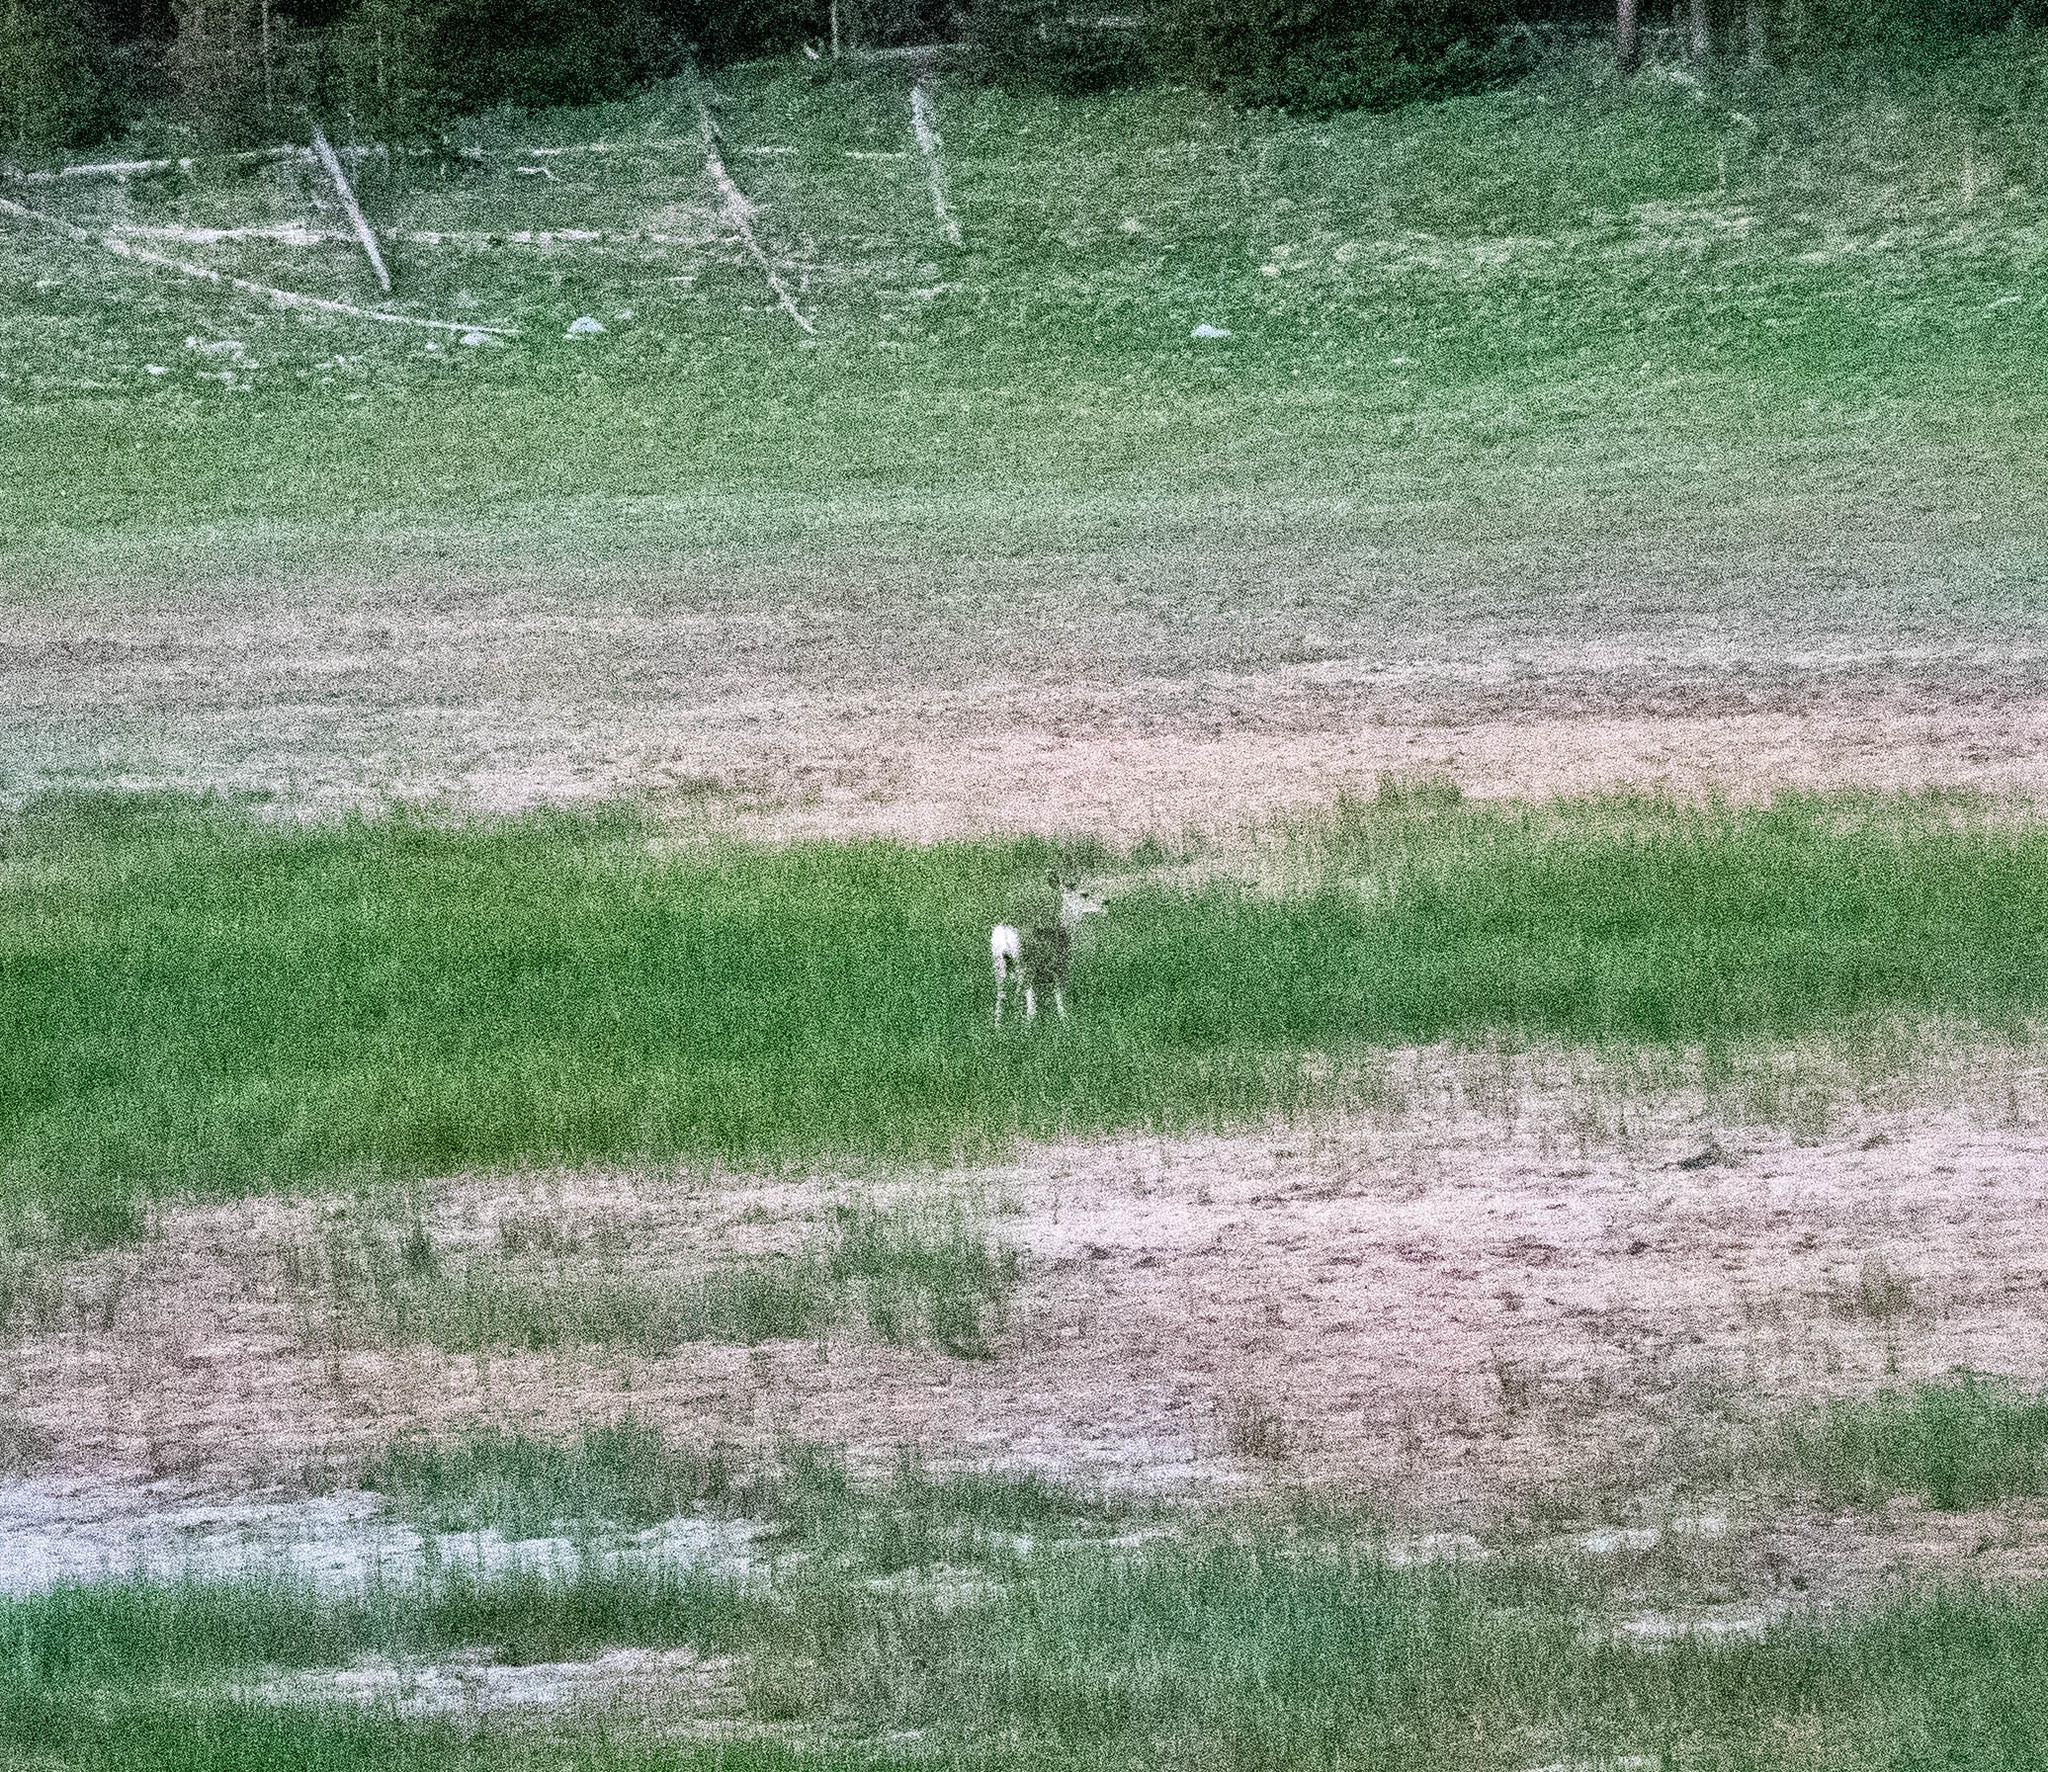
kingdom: Animalia
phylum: Chordata
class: Mammalia
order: Artiodactyla
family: Cervidae
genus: Odocoileus
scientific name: Odocoileus hemionus
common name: Mule deer
